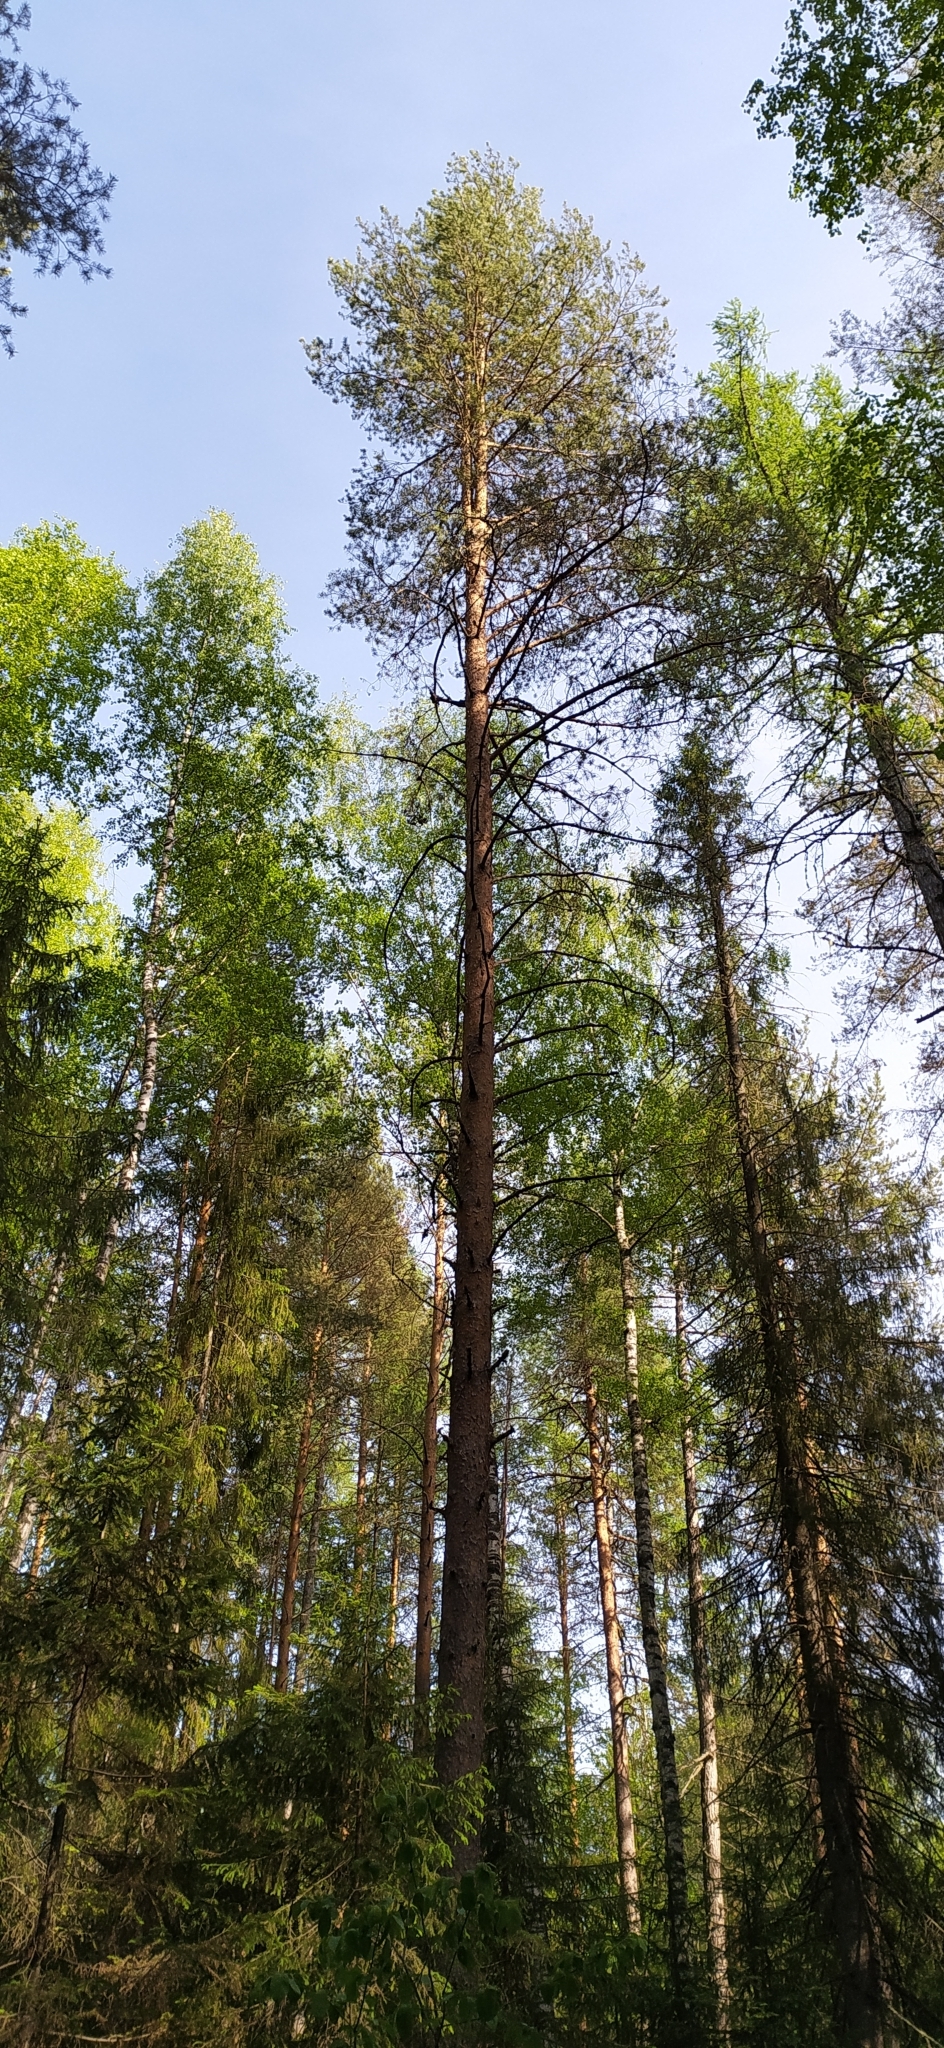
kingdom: Plantae
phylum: Tracheophyta
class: Pinopsida
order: Pinales
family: Pinaceae
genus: Pinus
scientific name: Pinus sylvestris
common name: Scots pine
